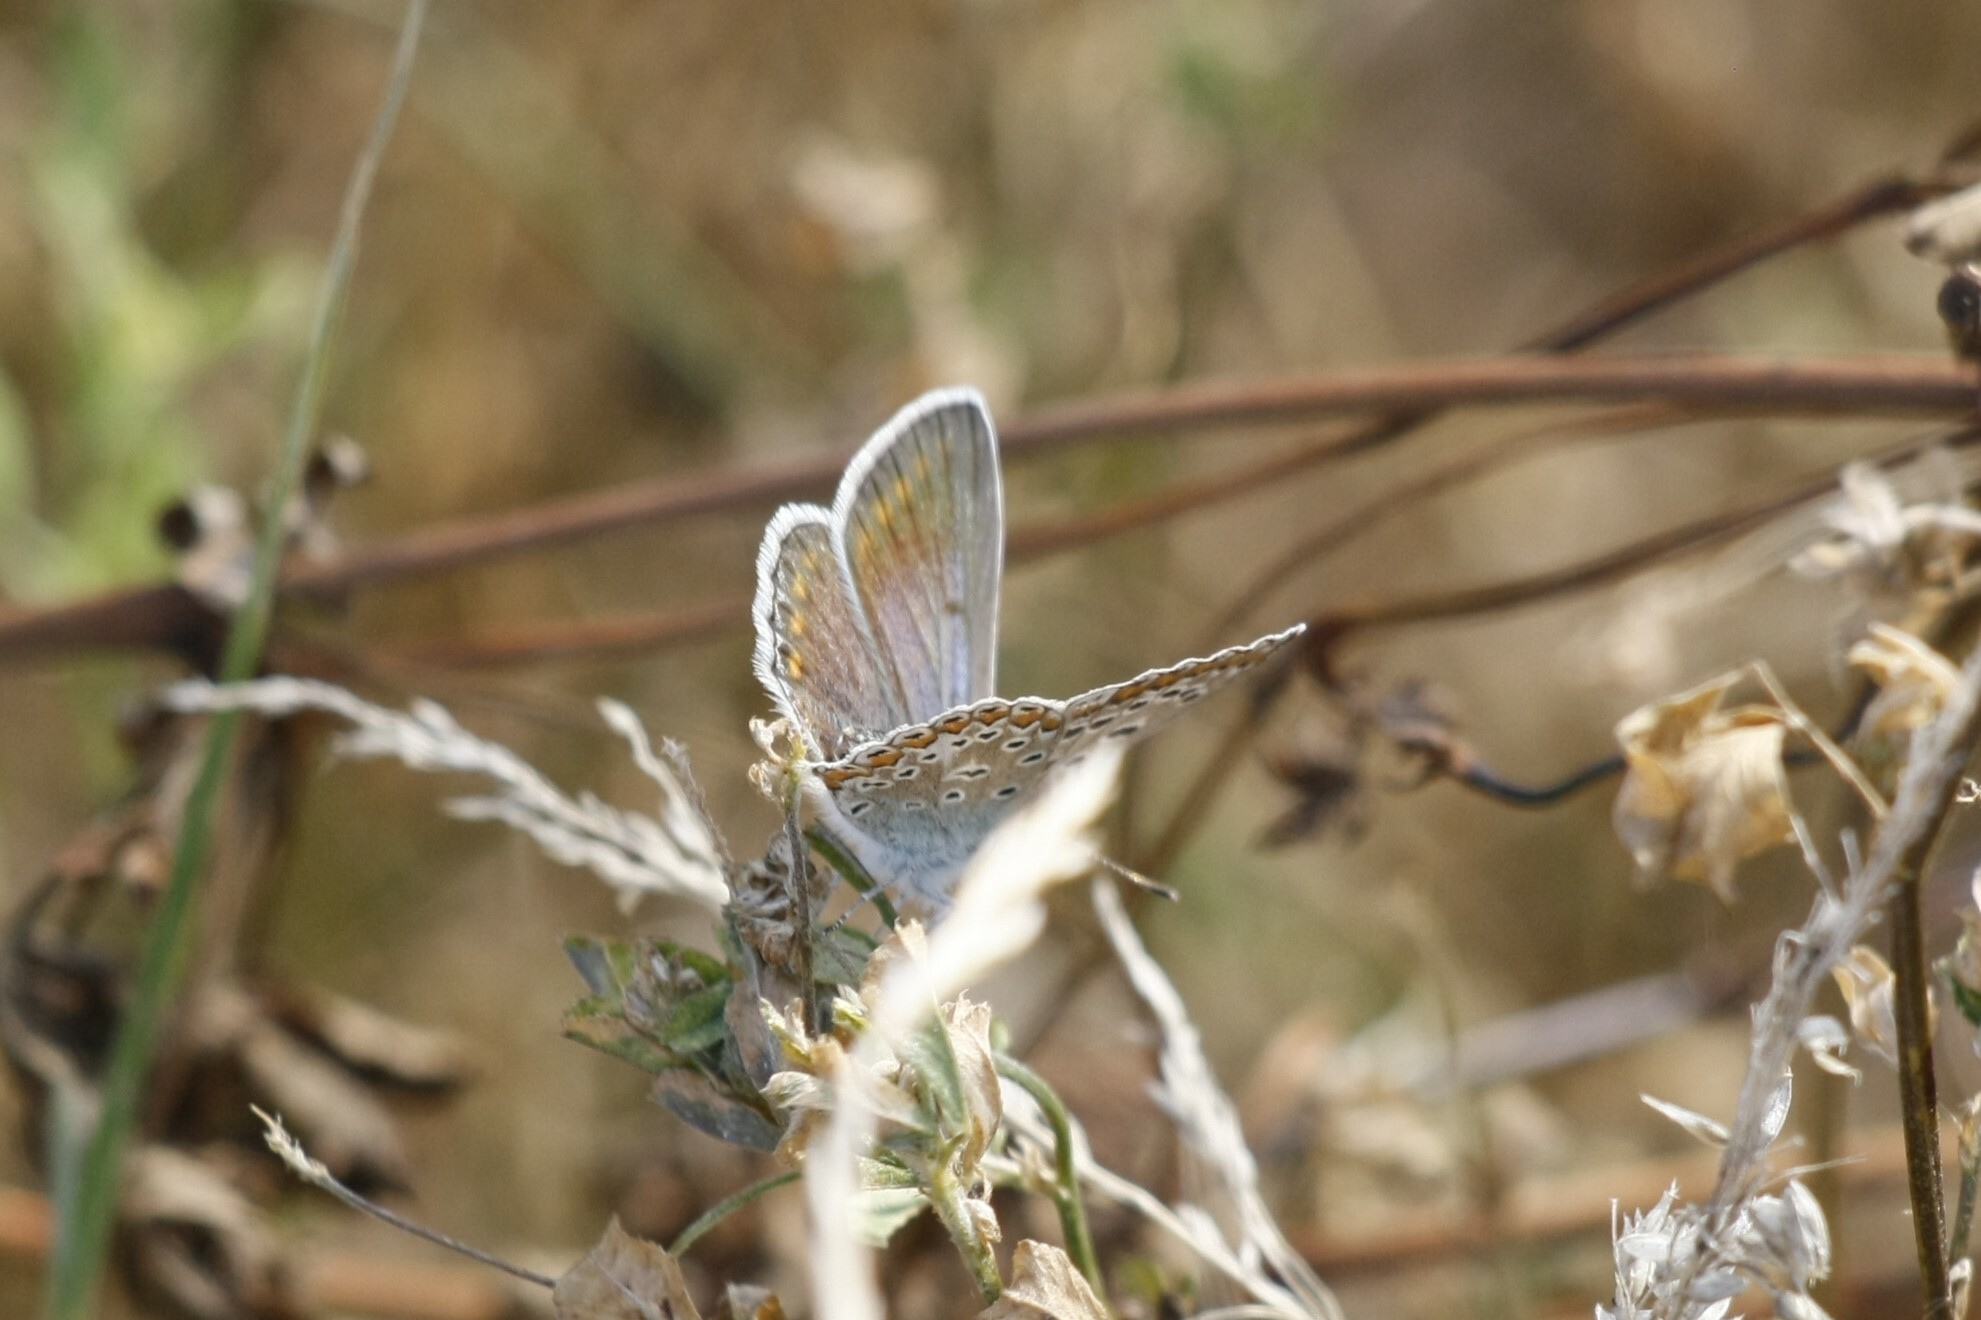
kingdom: Animalia
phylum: Arthropoda
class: Insecta
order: Lepidoptera
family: Lycaenidae
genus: Polyommatus
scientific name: Polyommatus icarus
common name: Common blue
